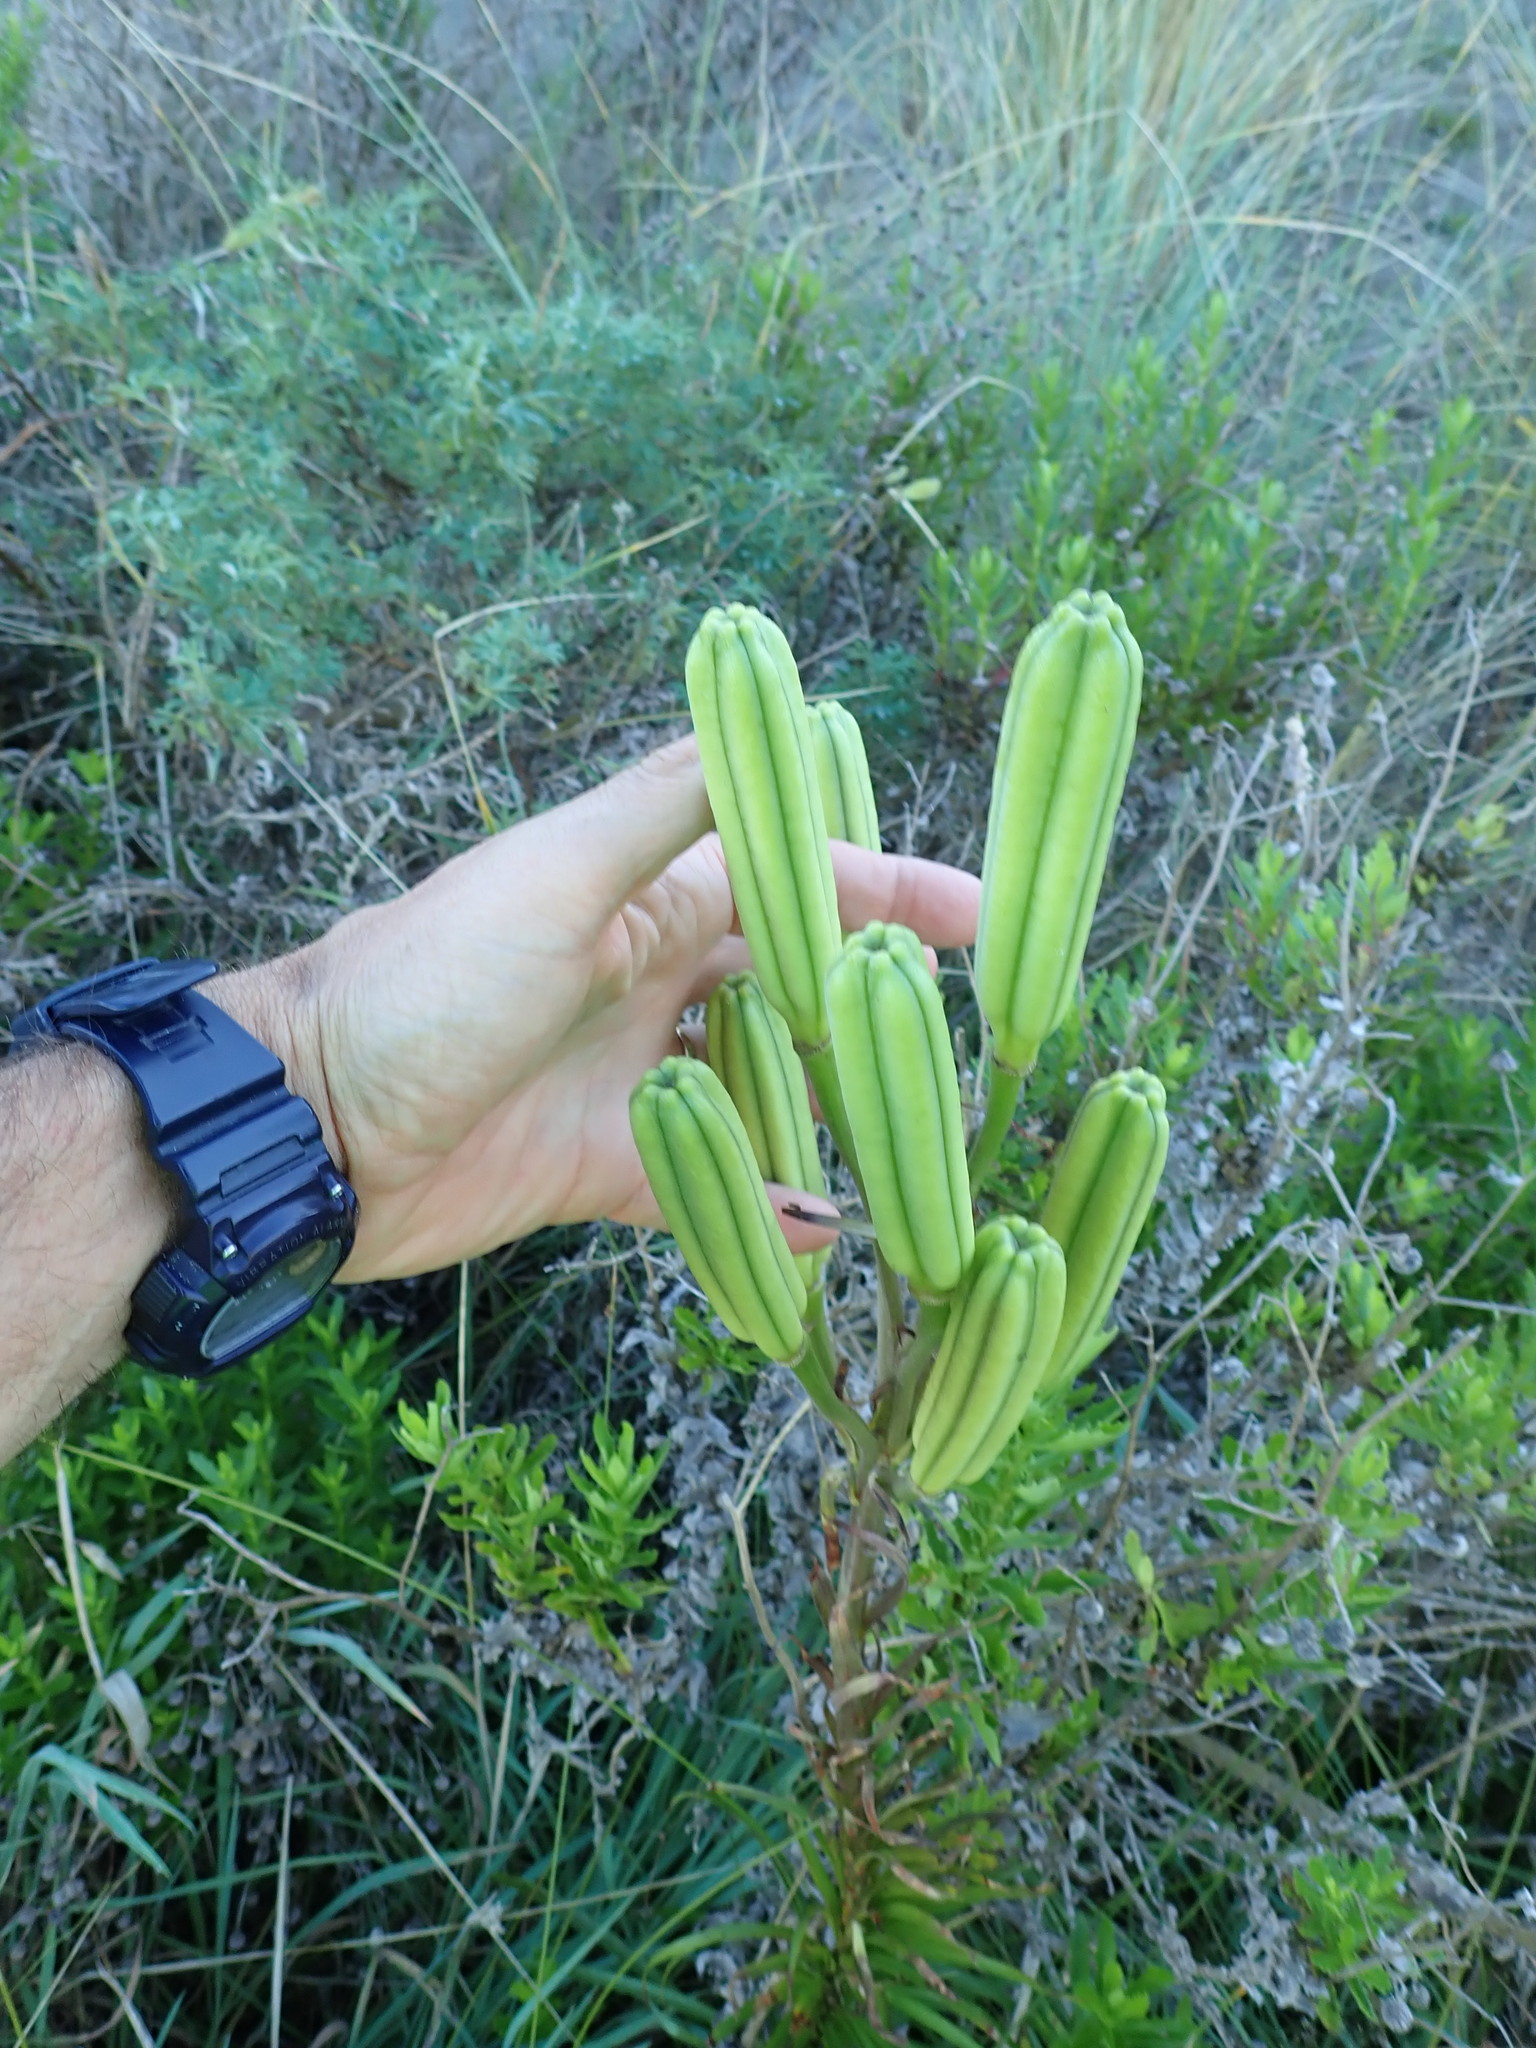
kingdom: Plantae
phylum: Tracheophyta
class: Liliopsida
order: Liliales
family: Liliaceae
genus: Lilium
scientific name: Lilium formosanum
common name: Formosa lily
